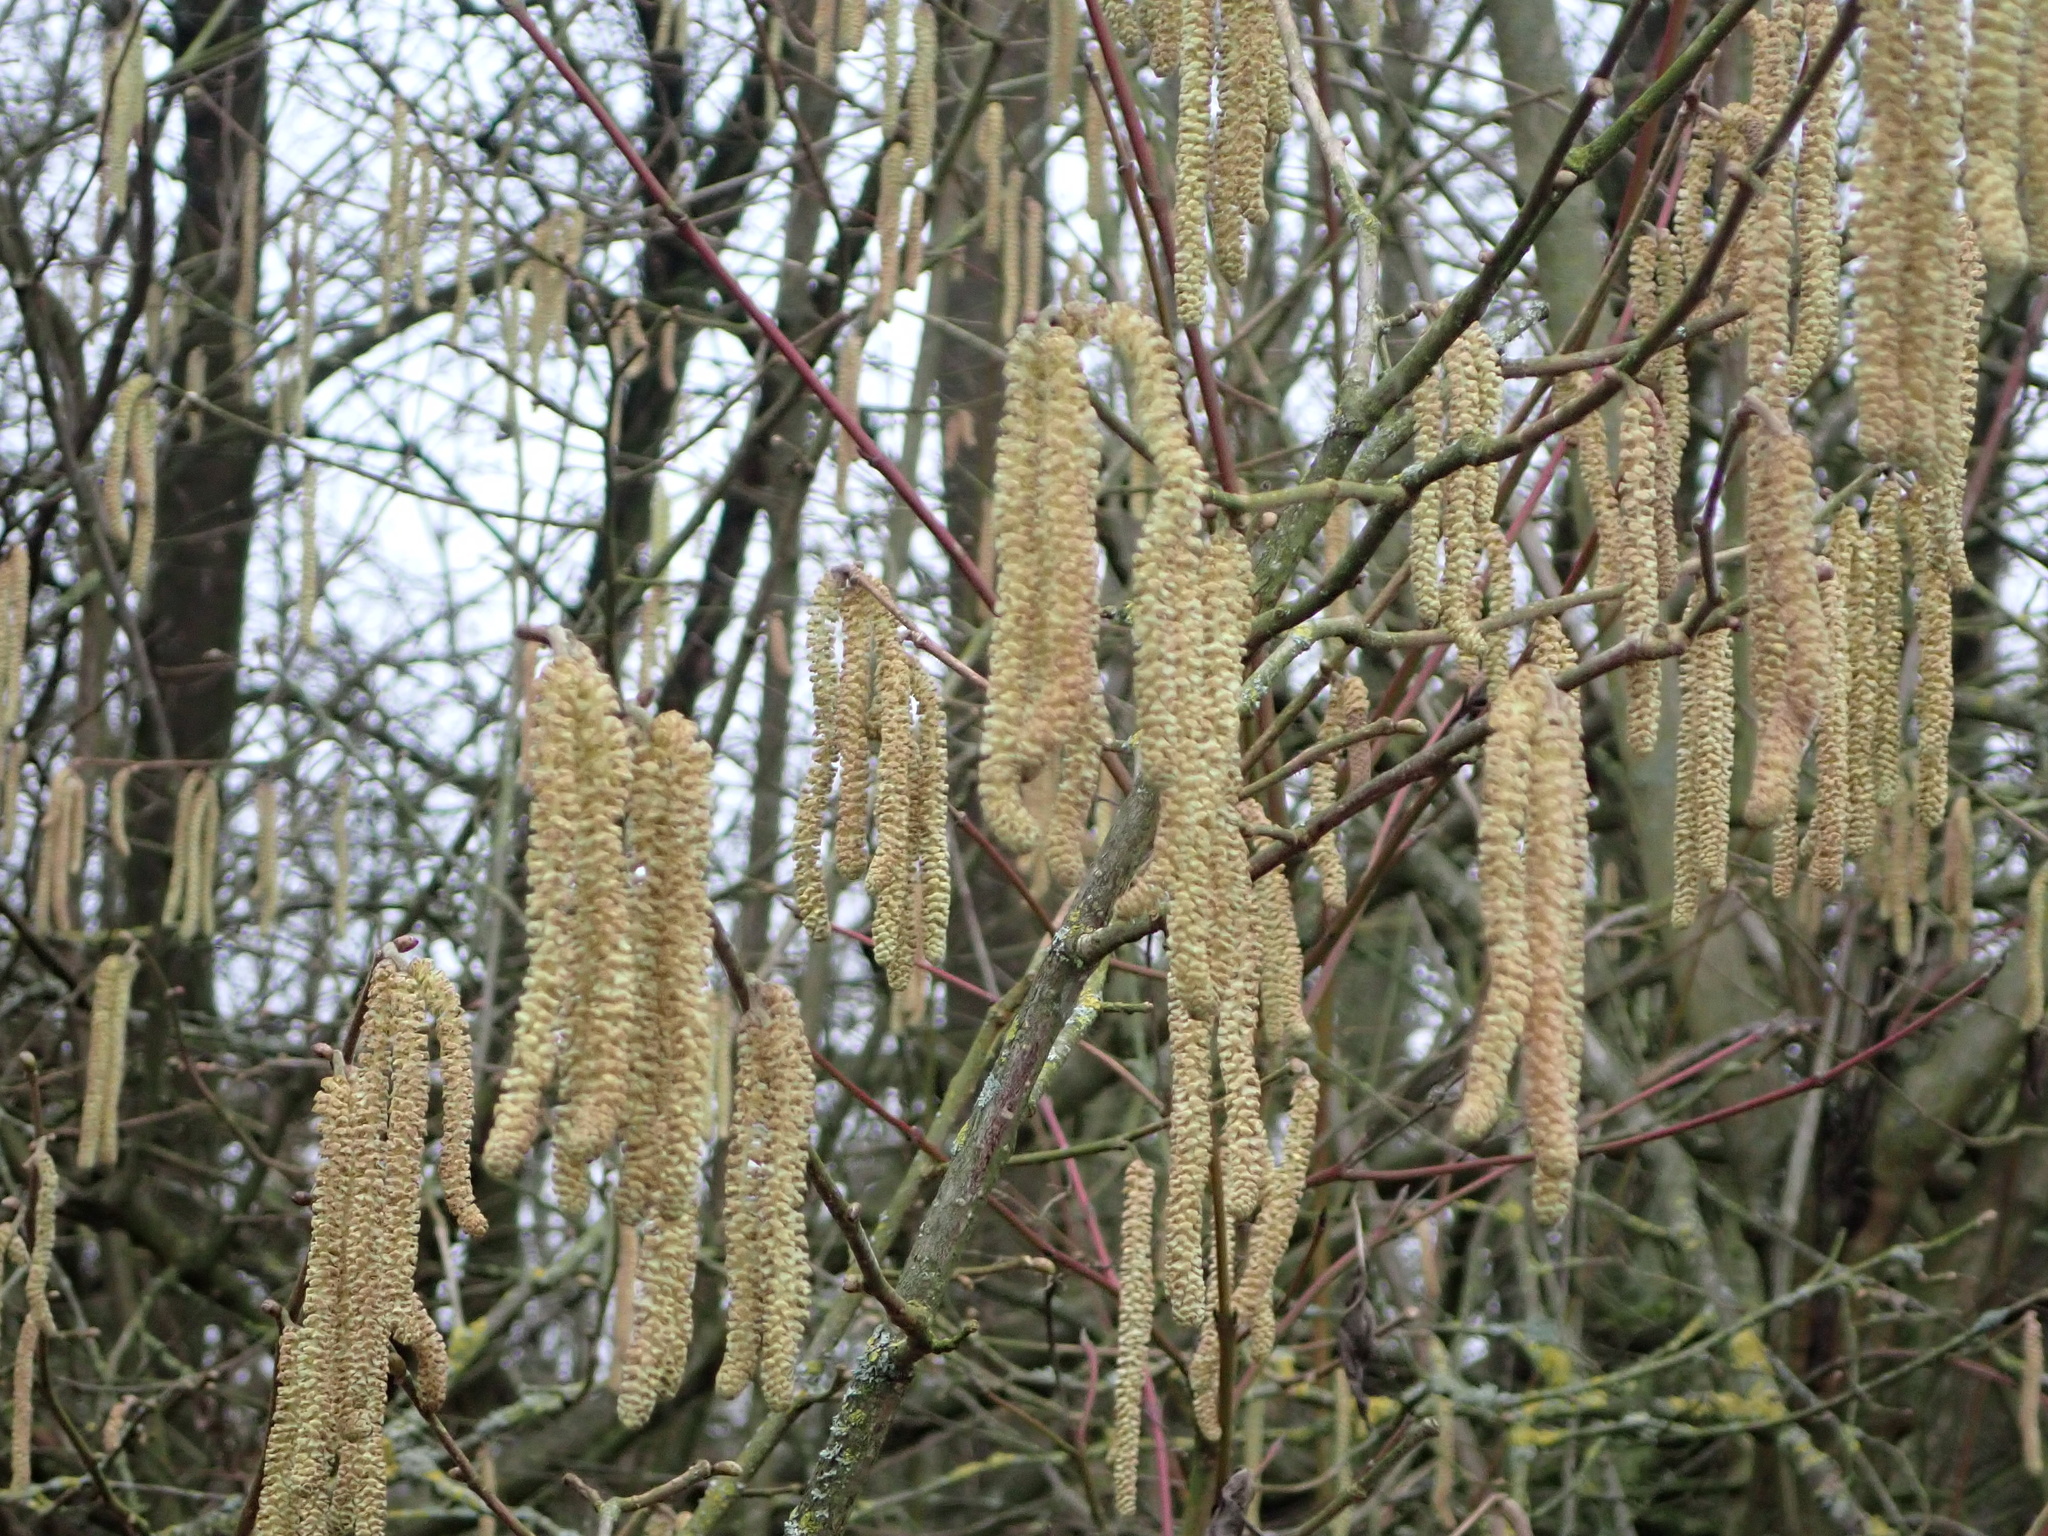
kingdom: Plantae
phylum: Tracheophyta
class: Magnoliopsida
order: Fagales
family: Betulaceae
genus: Corylus
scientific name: Corylus avellana
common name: European hazel
